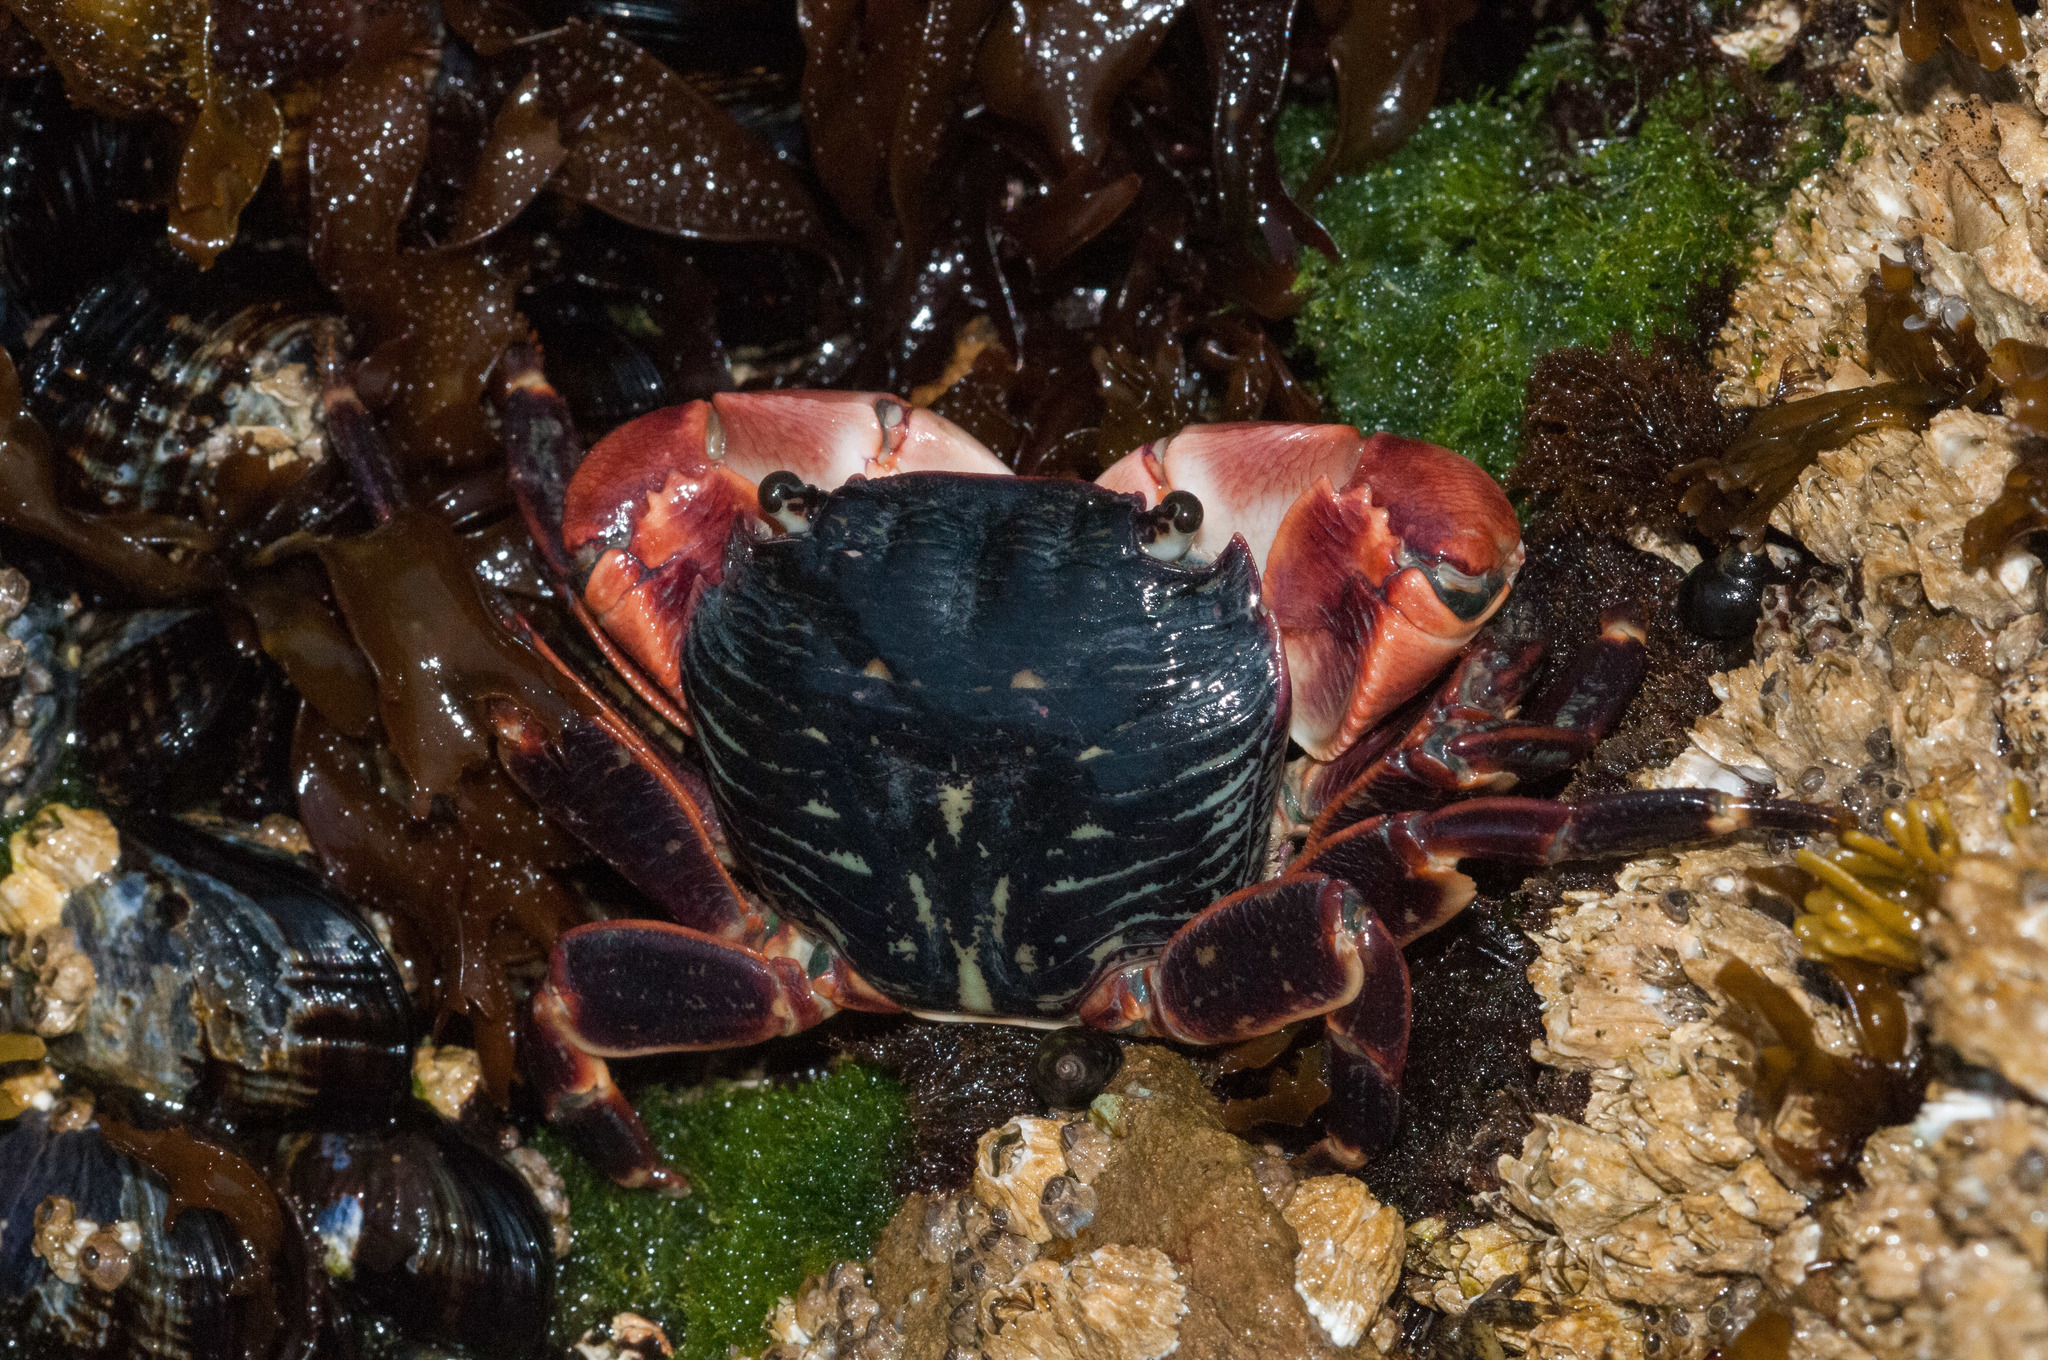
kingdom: Animalia
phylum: Arthropoda
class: Malacostraca
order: Decapoda
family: Grapsidae
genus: Pachygrapsus
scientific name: Pachygrapsus crassipes
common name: Striped shore crab
